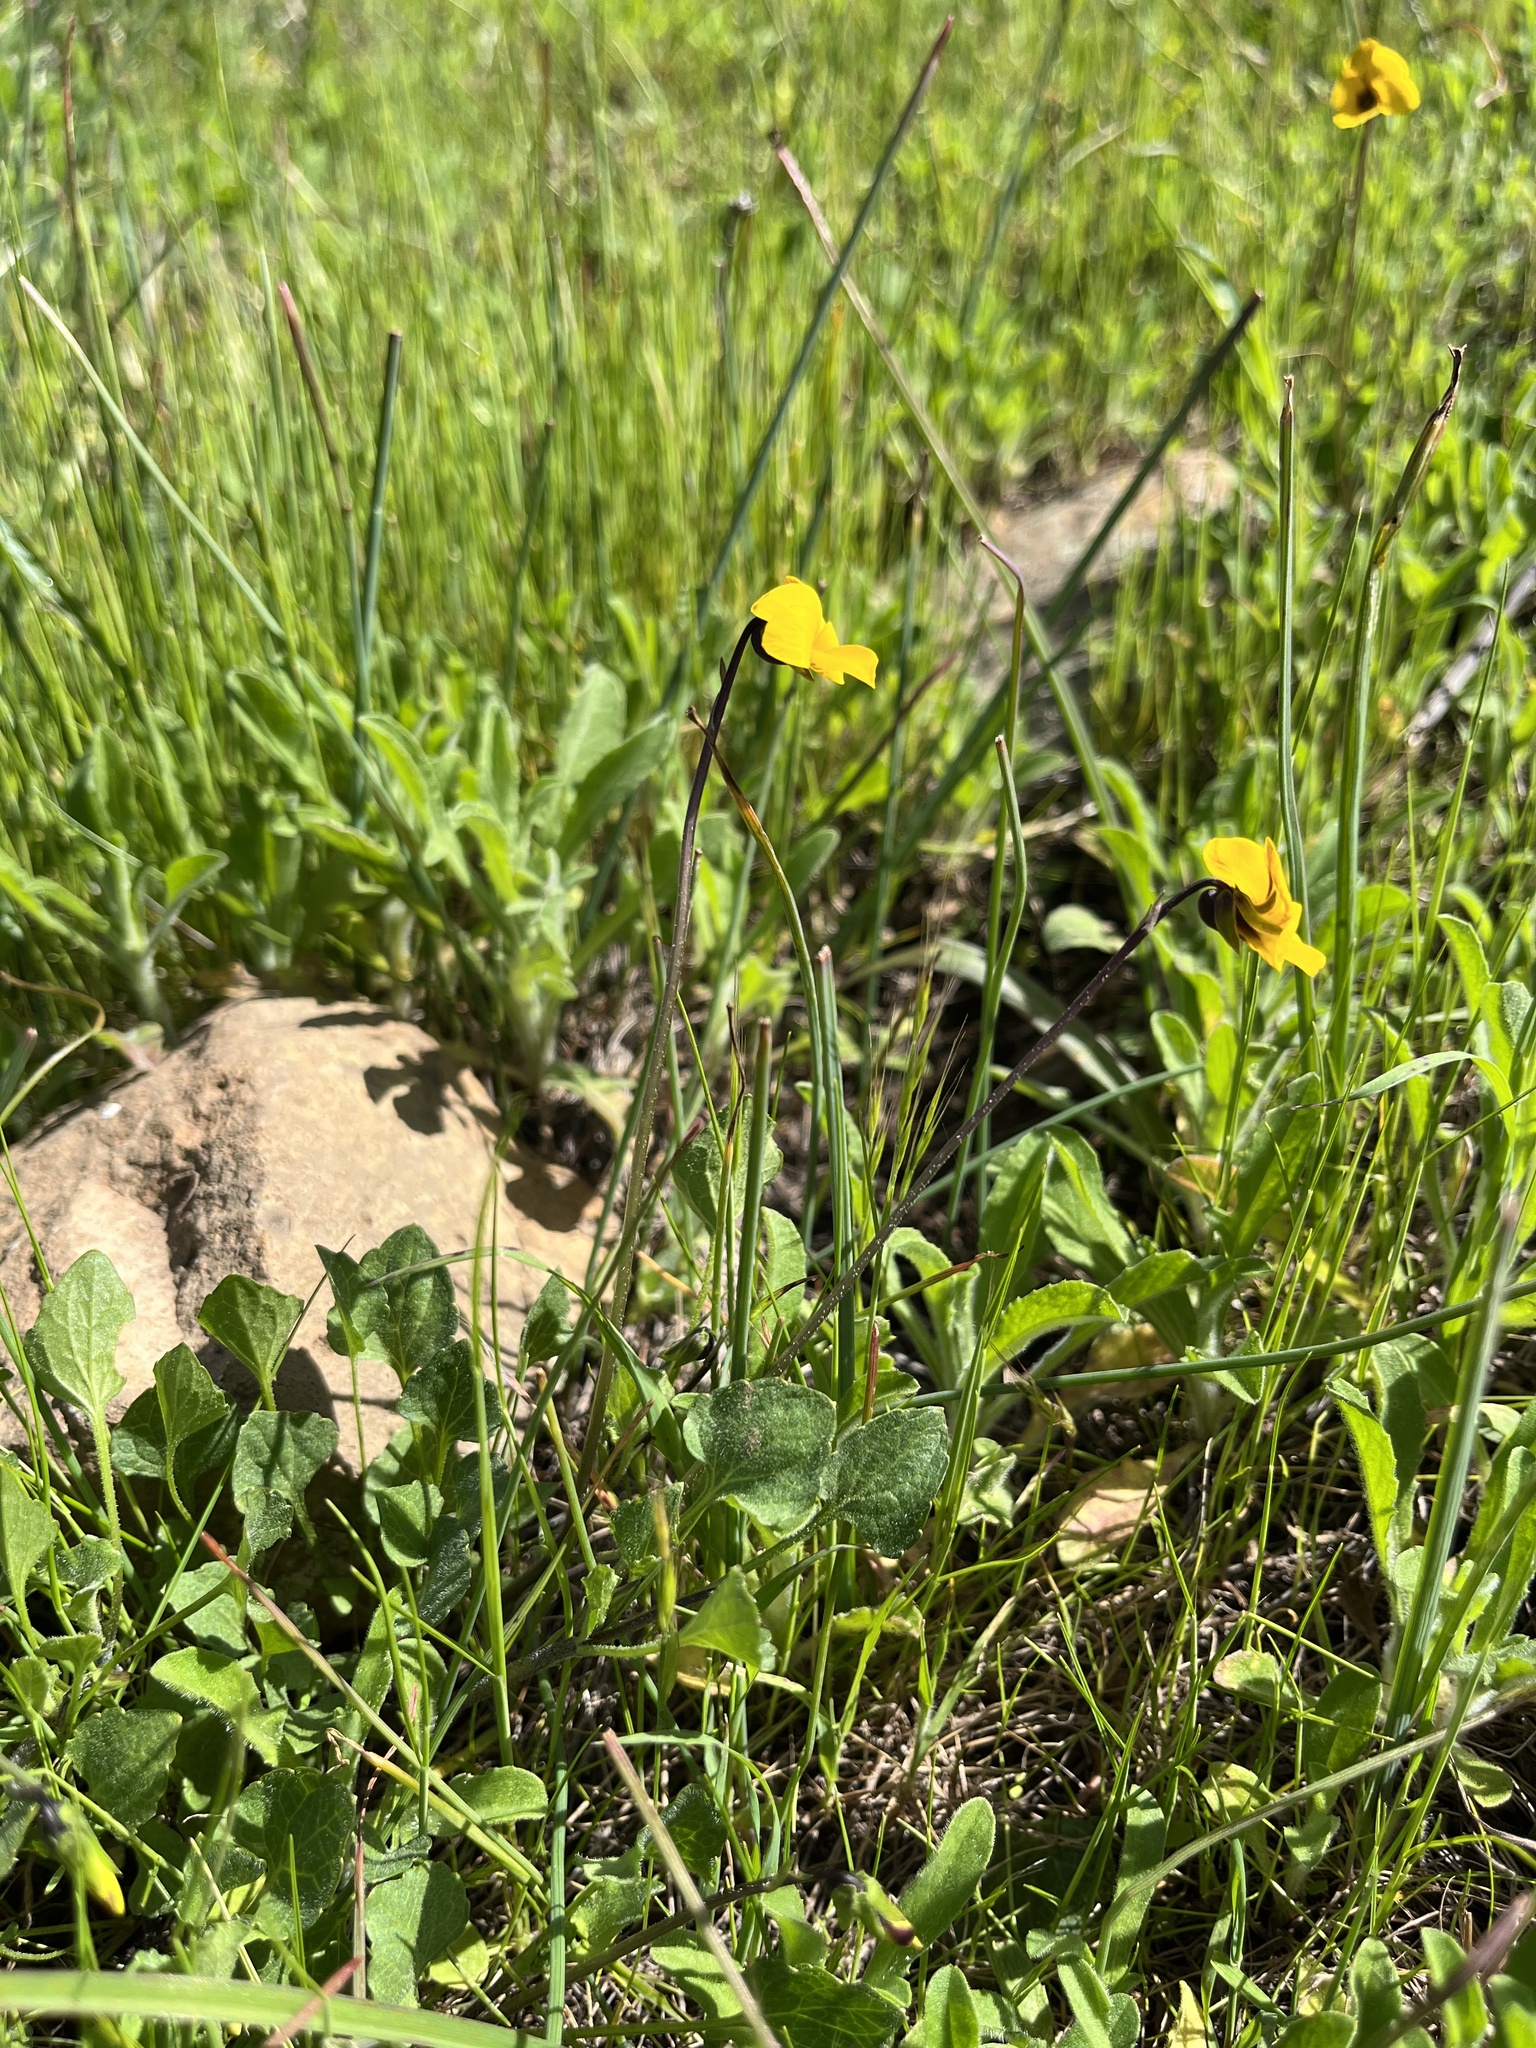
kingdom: Plantae
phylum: Tracheophyta
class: Magnoliopsida
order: Malpighiales
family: Violaceae
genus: Viola
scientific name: Viola pedunculata
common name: California golden violet
